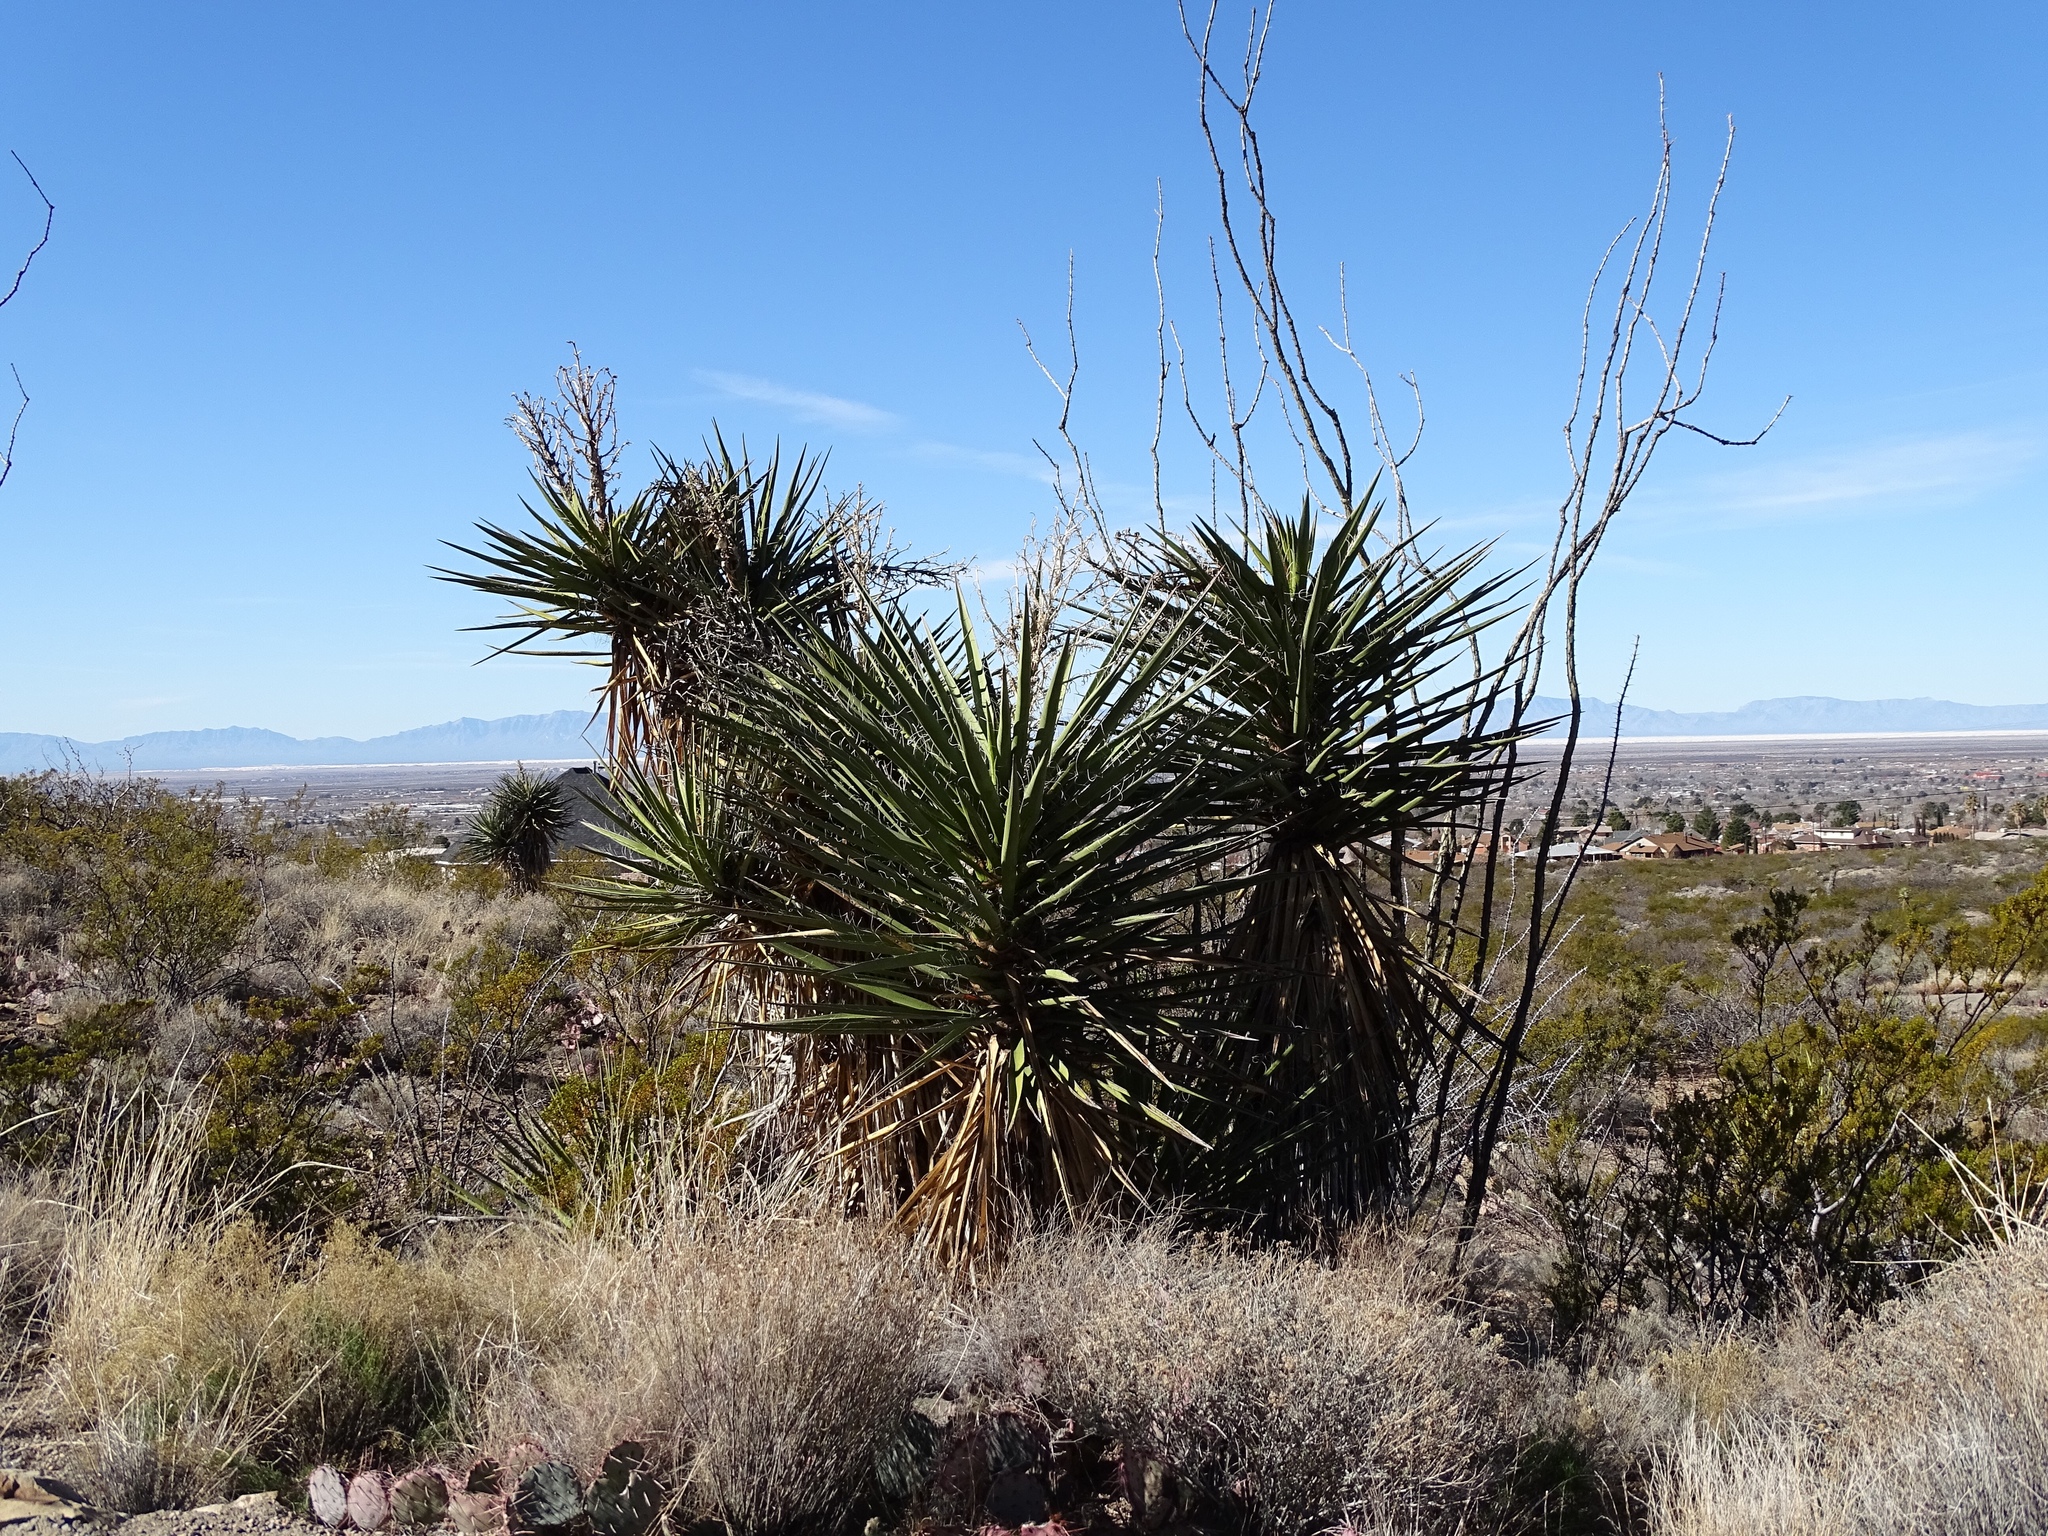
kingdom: Plantae
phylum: Tracheophyta
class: Liliopsida
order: Asparagales
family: Asparagaceae
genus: Yucca
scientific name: Yucca treculiana
